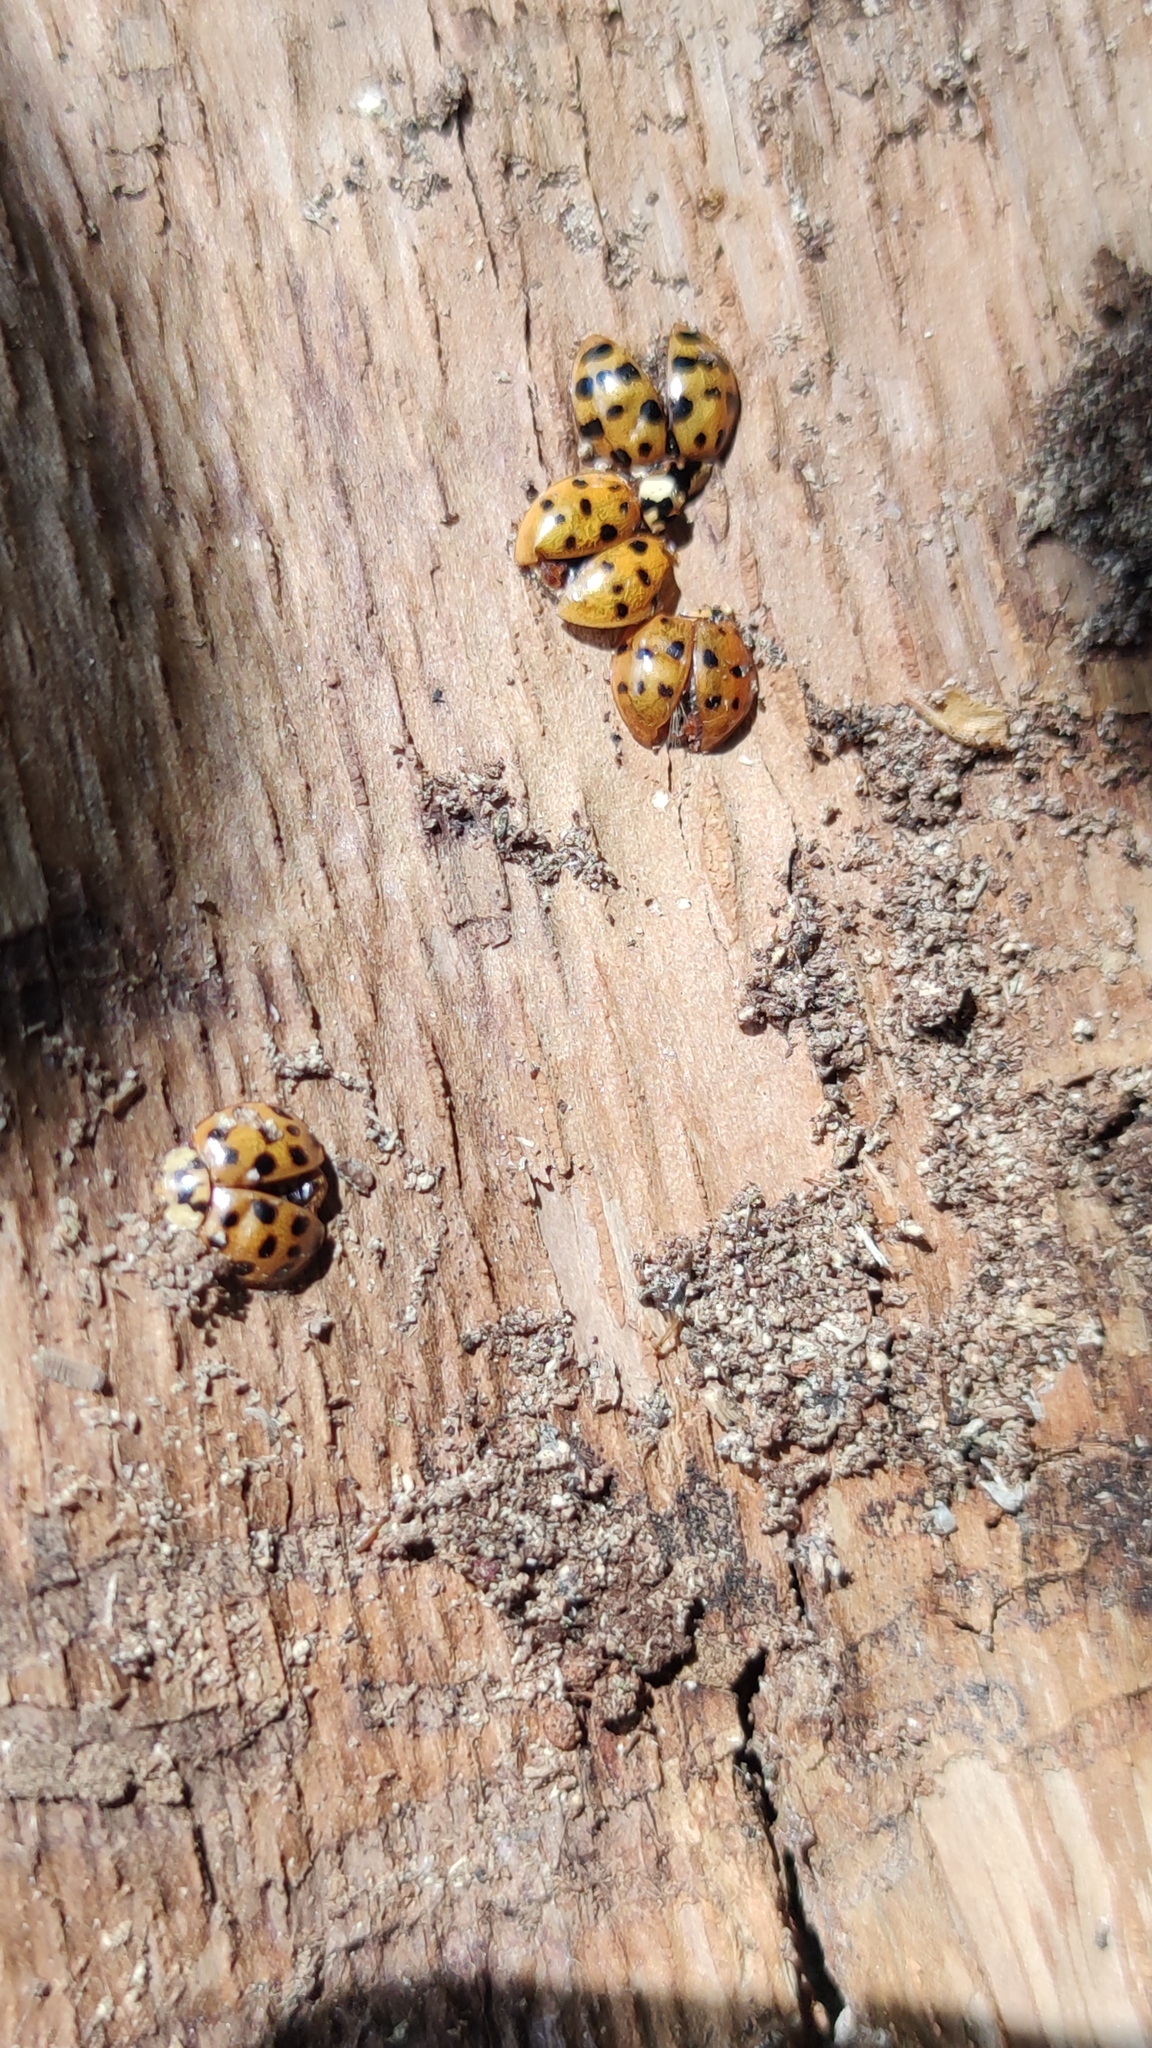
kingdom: Animalia
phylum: Arthropoda
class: Insecta
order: Coleoptera
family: Coccinellidae
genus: Harmonia
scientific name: Harmonia axyridis
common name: Harlequin ladybird
